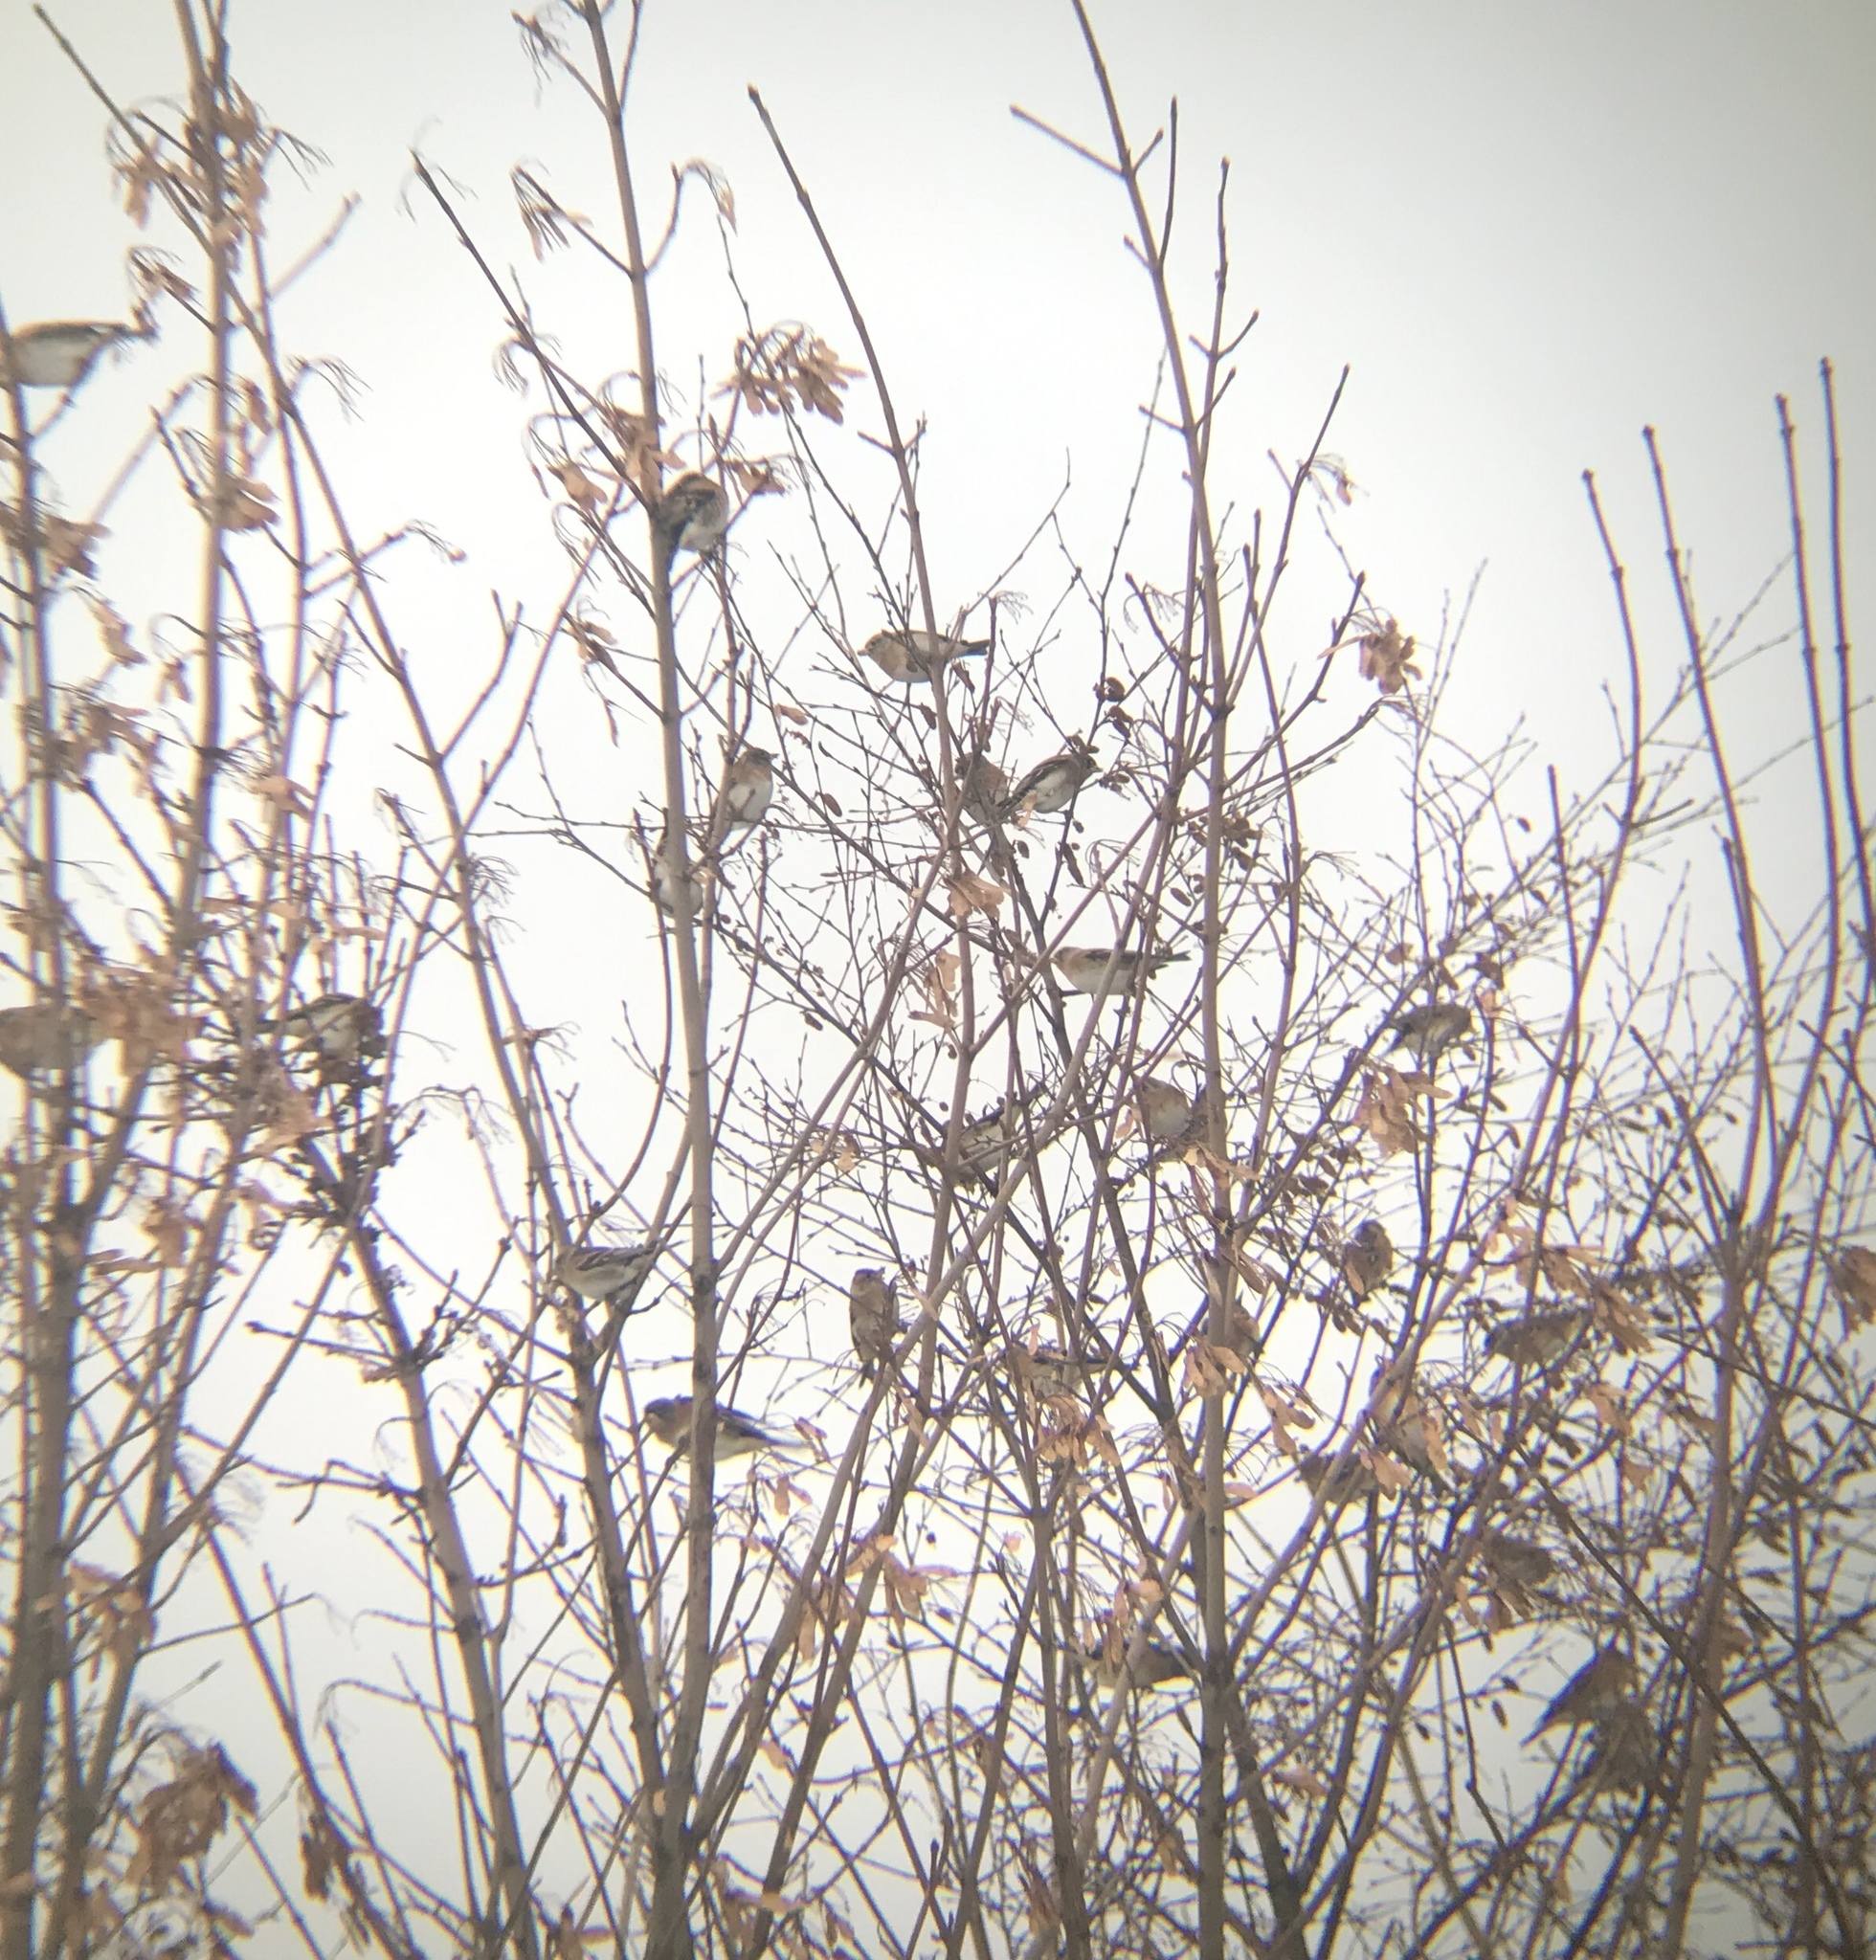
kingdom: Animalia
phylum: Chordata
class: Aves
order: Passeriformes
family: Fringillidae
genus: Fringilla
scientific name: Fringilla montifringilla
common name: Brambling
